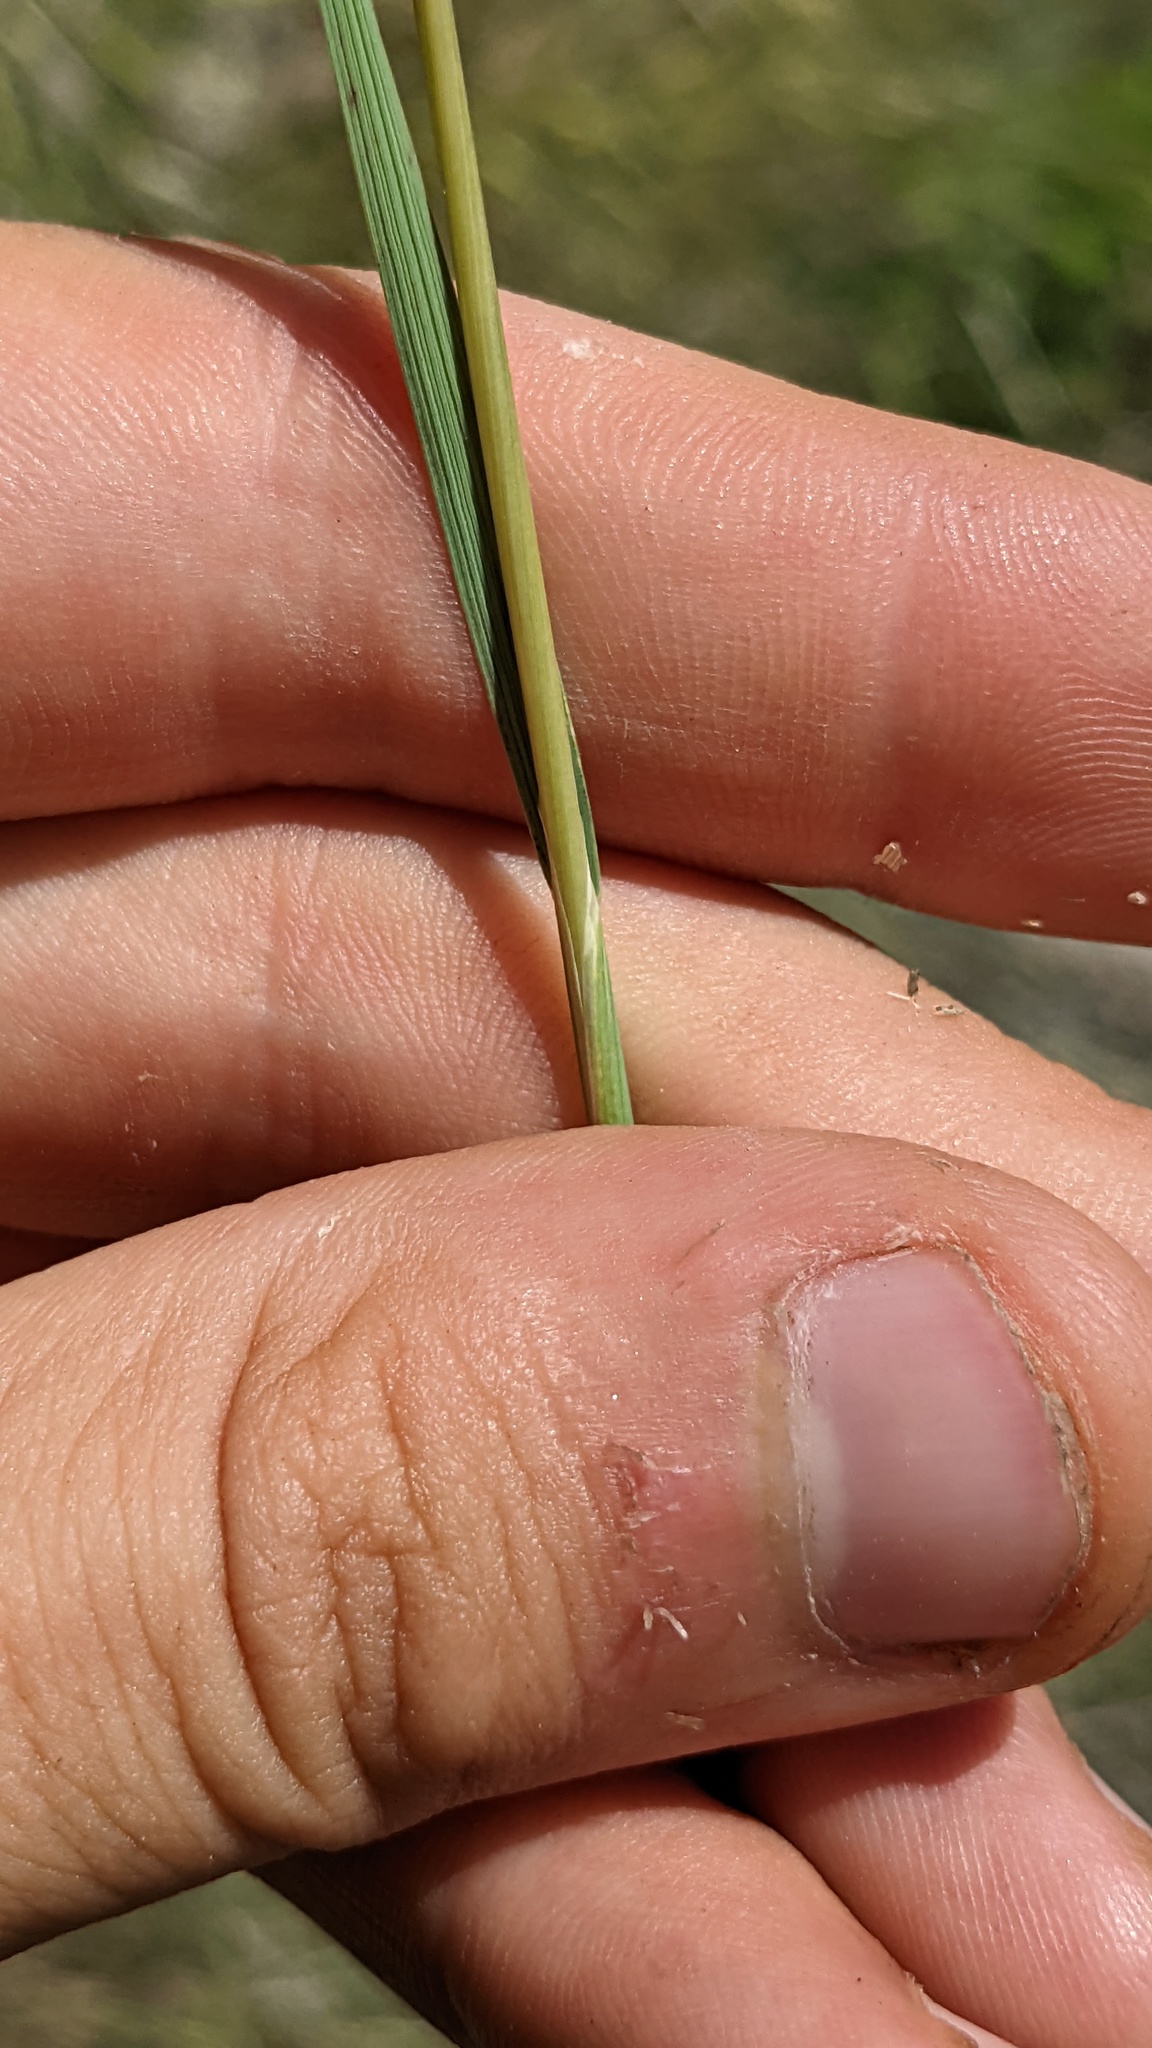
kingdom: Plantae
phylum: Tracheophyta
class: Liliopsida
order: Poales
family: Poaceae
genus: Hesperostipa
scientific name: Hesperostipa comata
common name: Needle-and-thread grass
